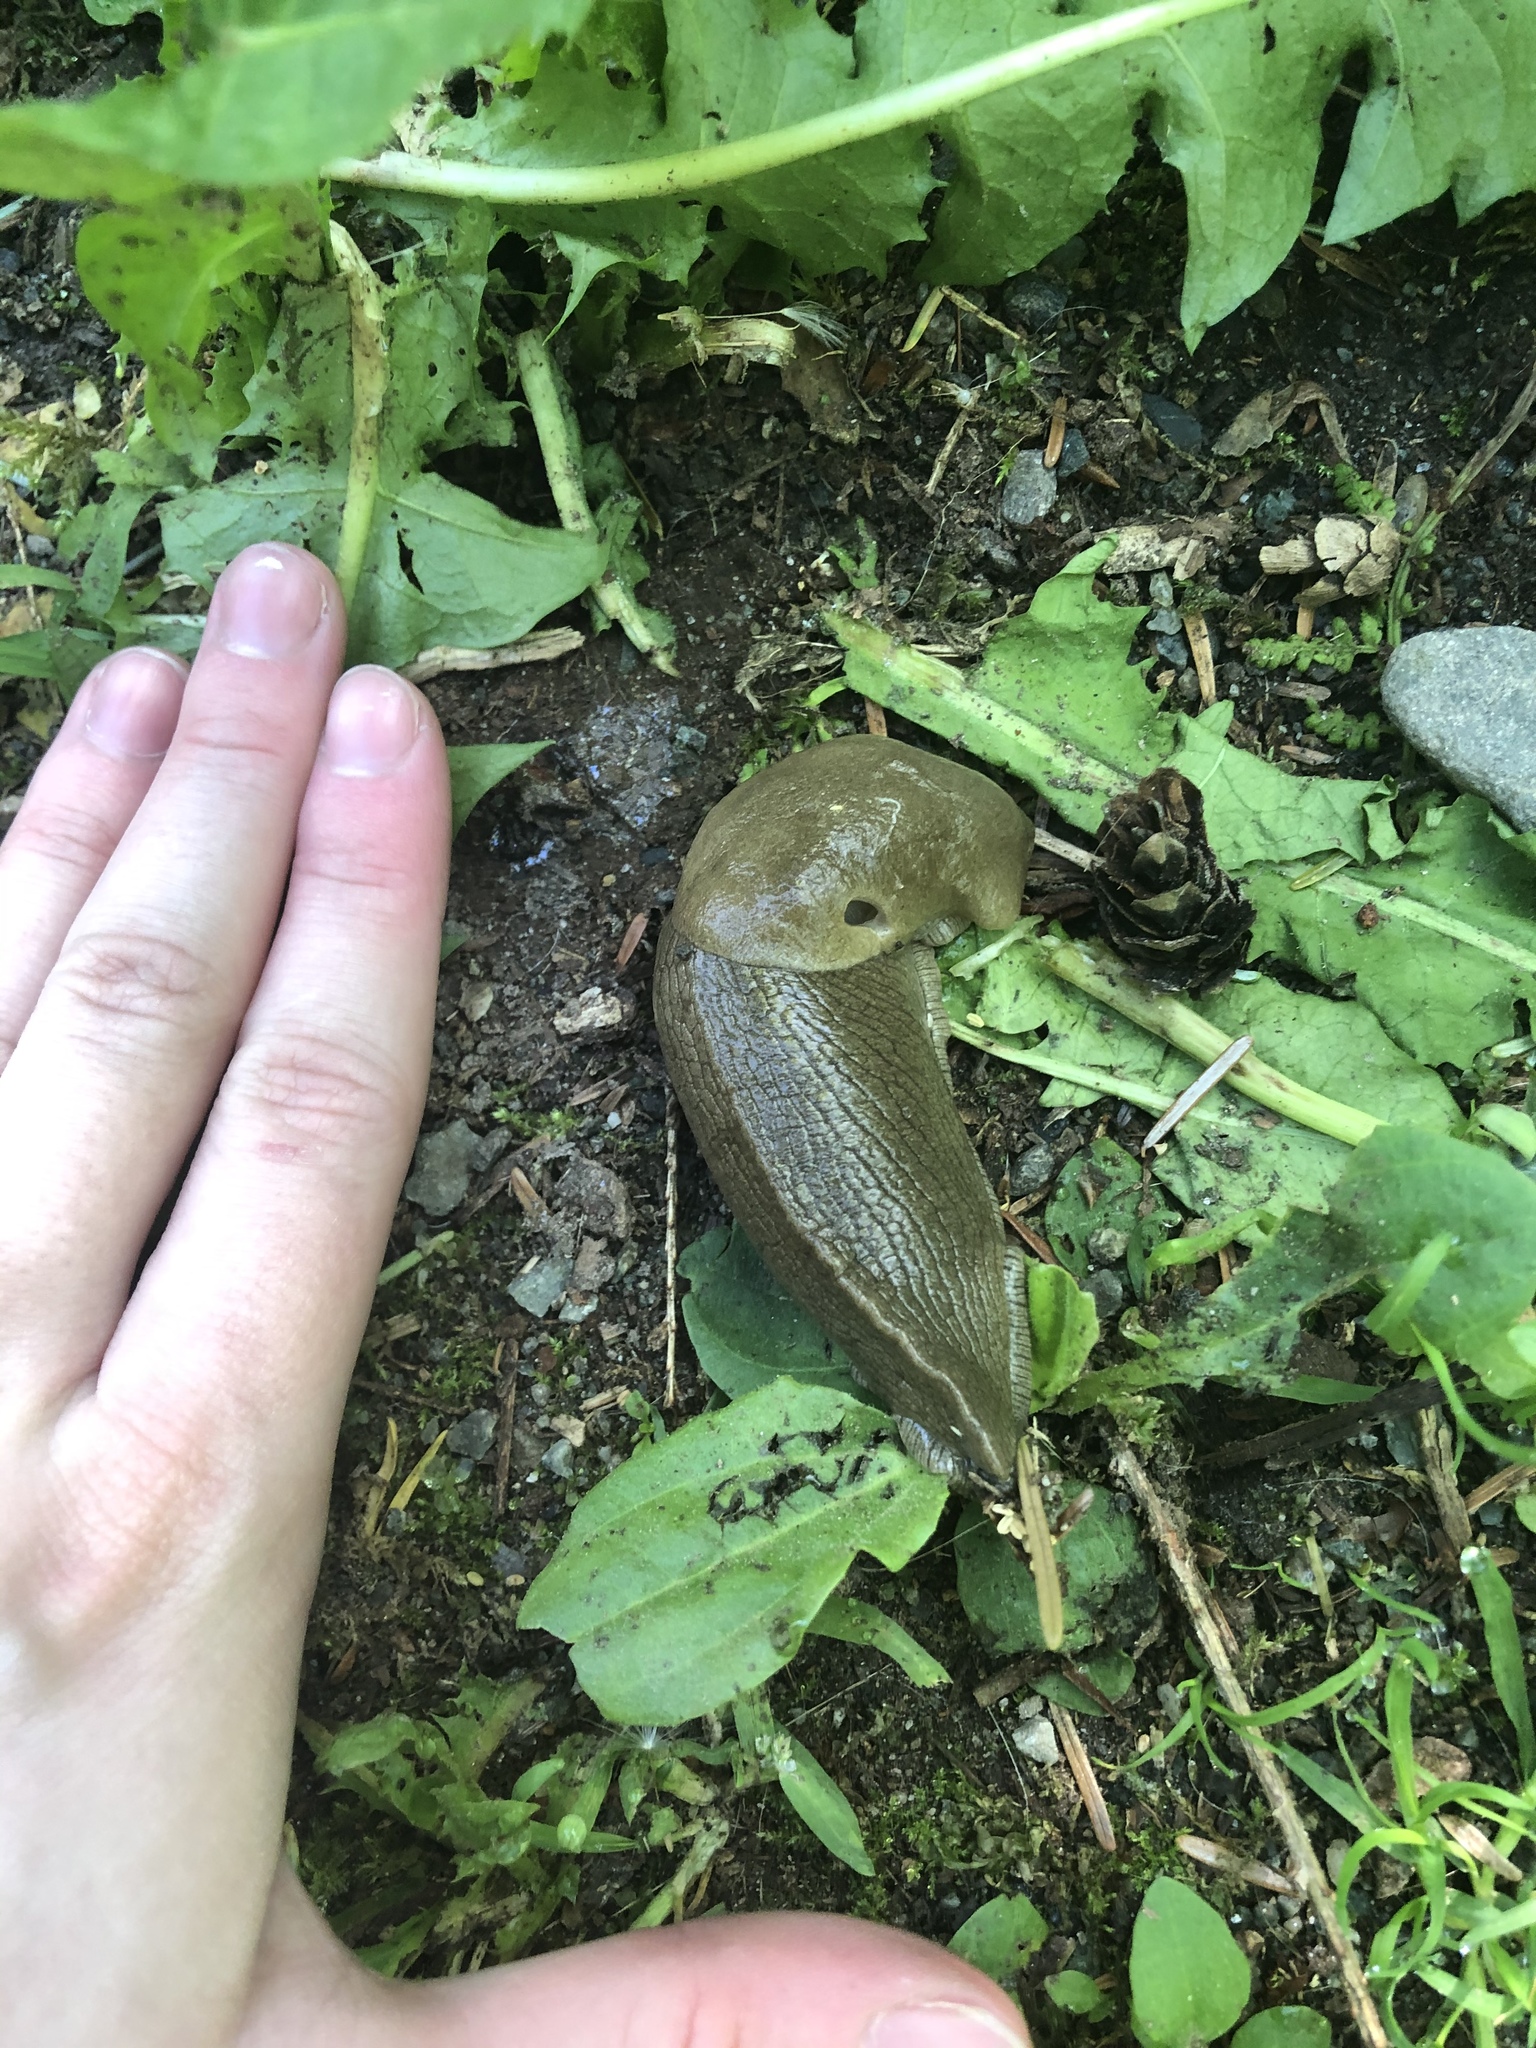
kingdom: Animalia
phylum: Mollusca
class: Gastropoda
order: Stylommatophora
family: Ariolimacidae
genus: Ariolimax
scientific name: Ariolimax columbianus
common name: Pacific banana slug
